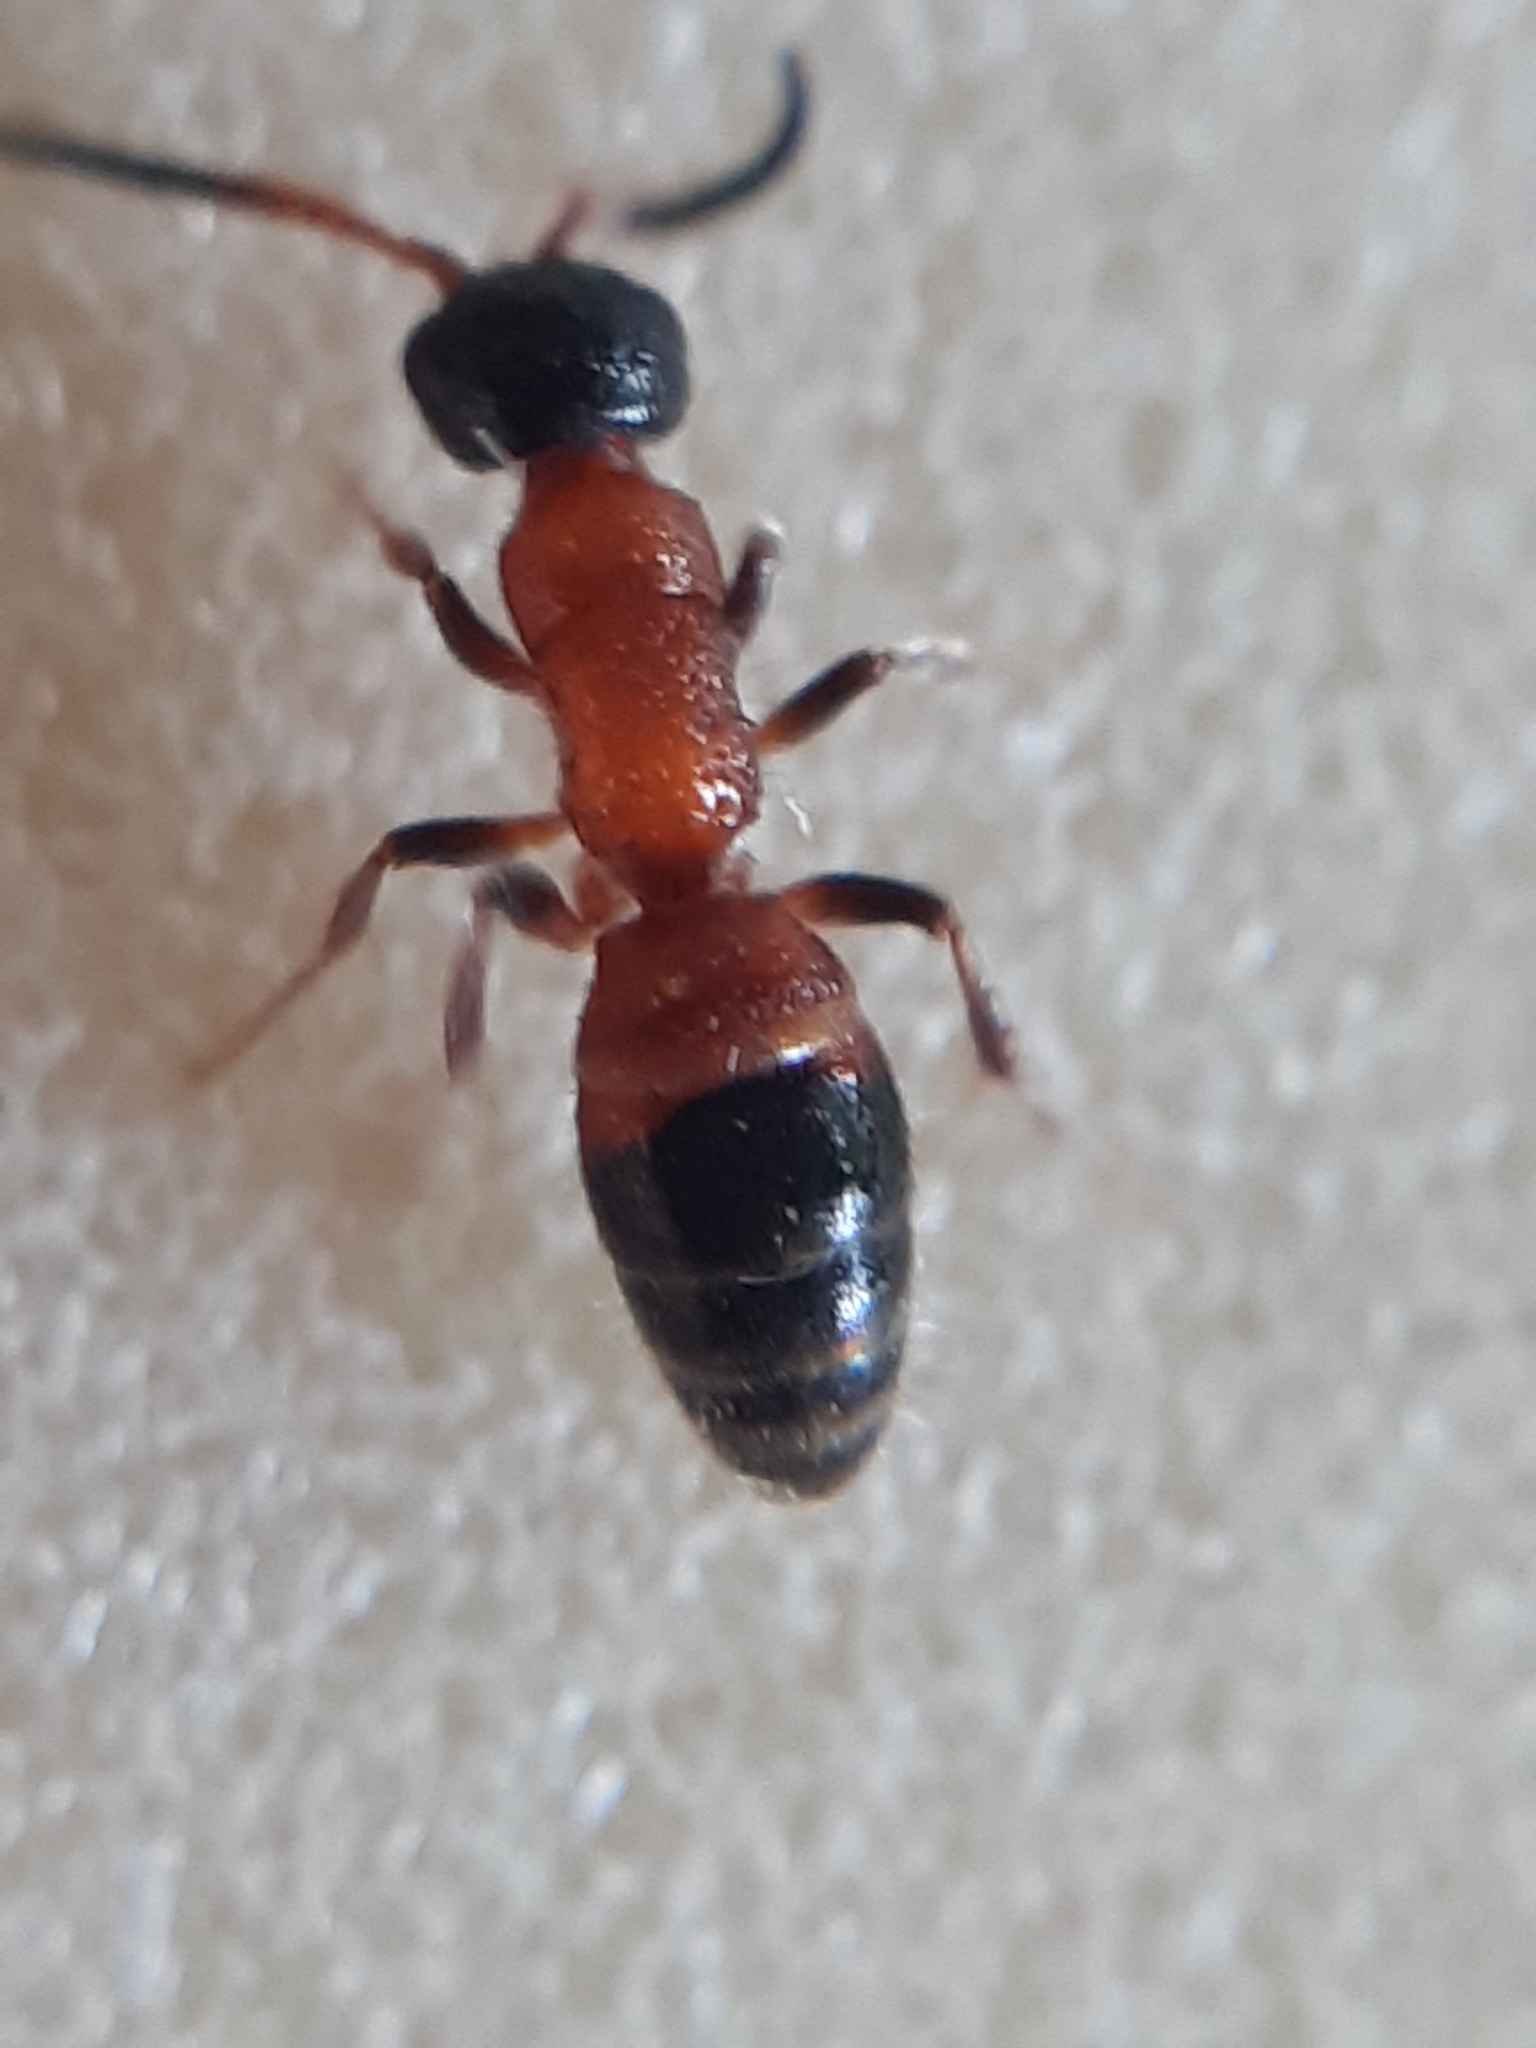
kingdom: Animalia
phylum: Arthropoda
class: Insecta
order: Hymenoptera
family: Mutillidae
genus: Myrmosa
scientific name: Myrmosa atra
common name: Black headed velvet ant
